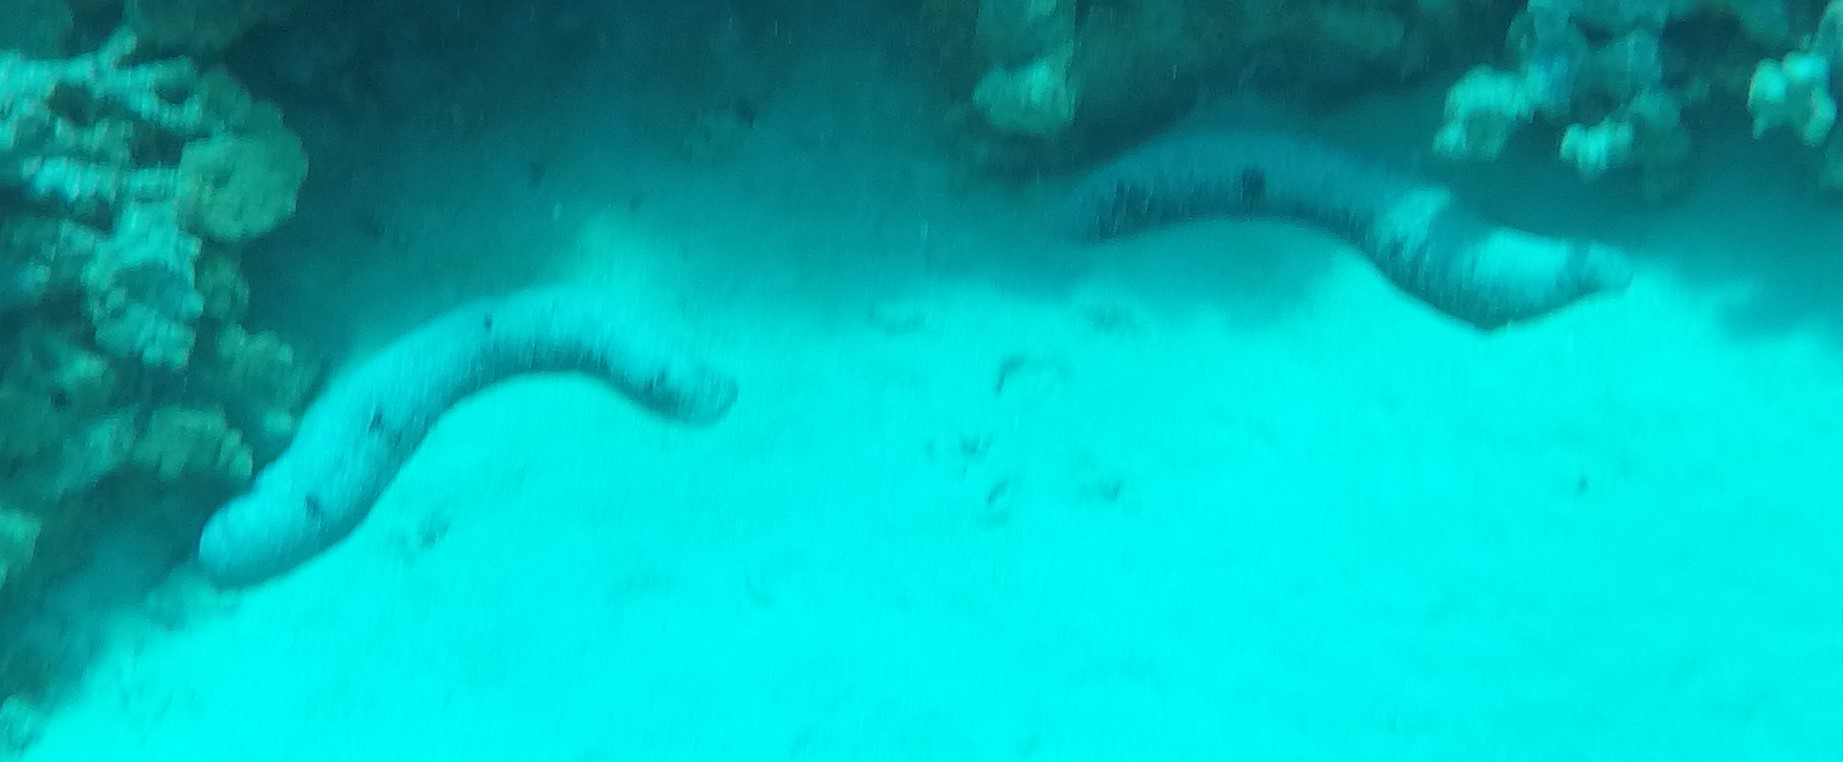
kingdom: Animalia
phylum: Echinodermata
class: Holothuroidea
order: Holothuriida
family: Holothuriidae
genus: Holothuria
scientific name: Holothuria atra
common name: Lollyfish
